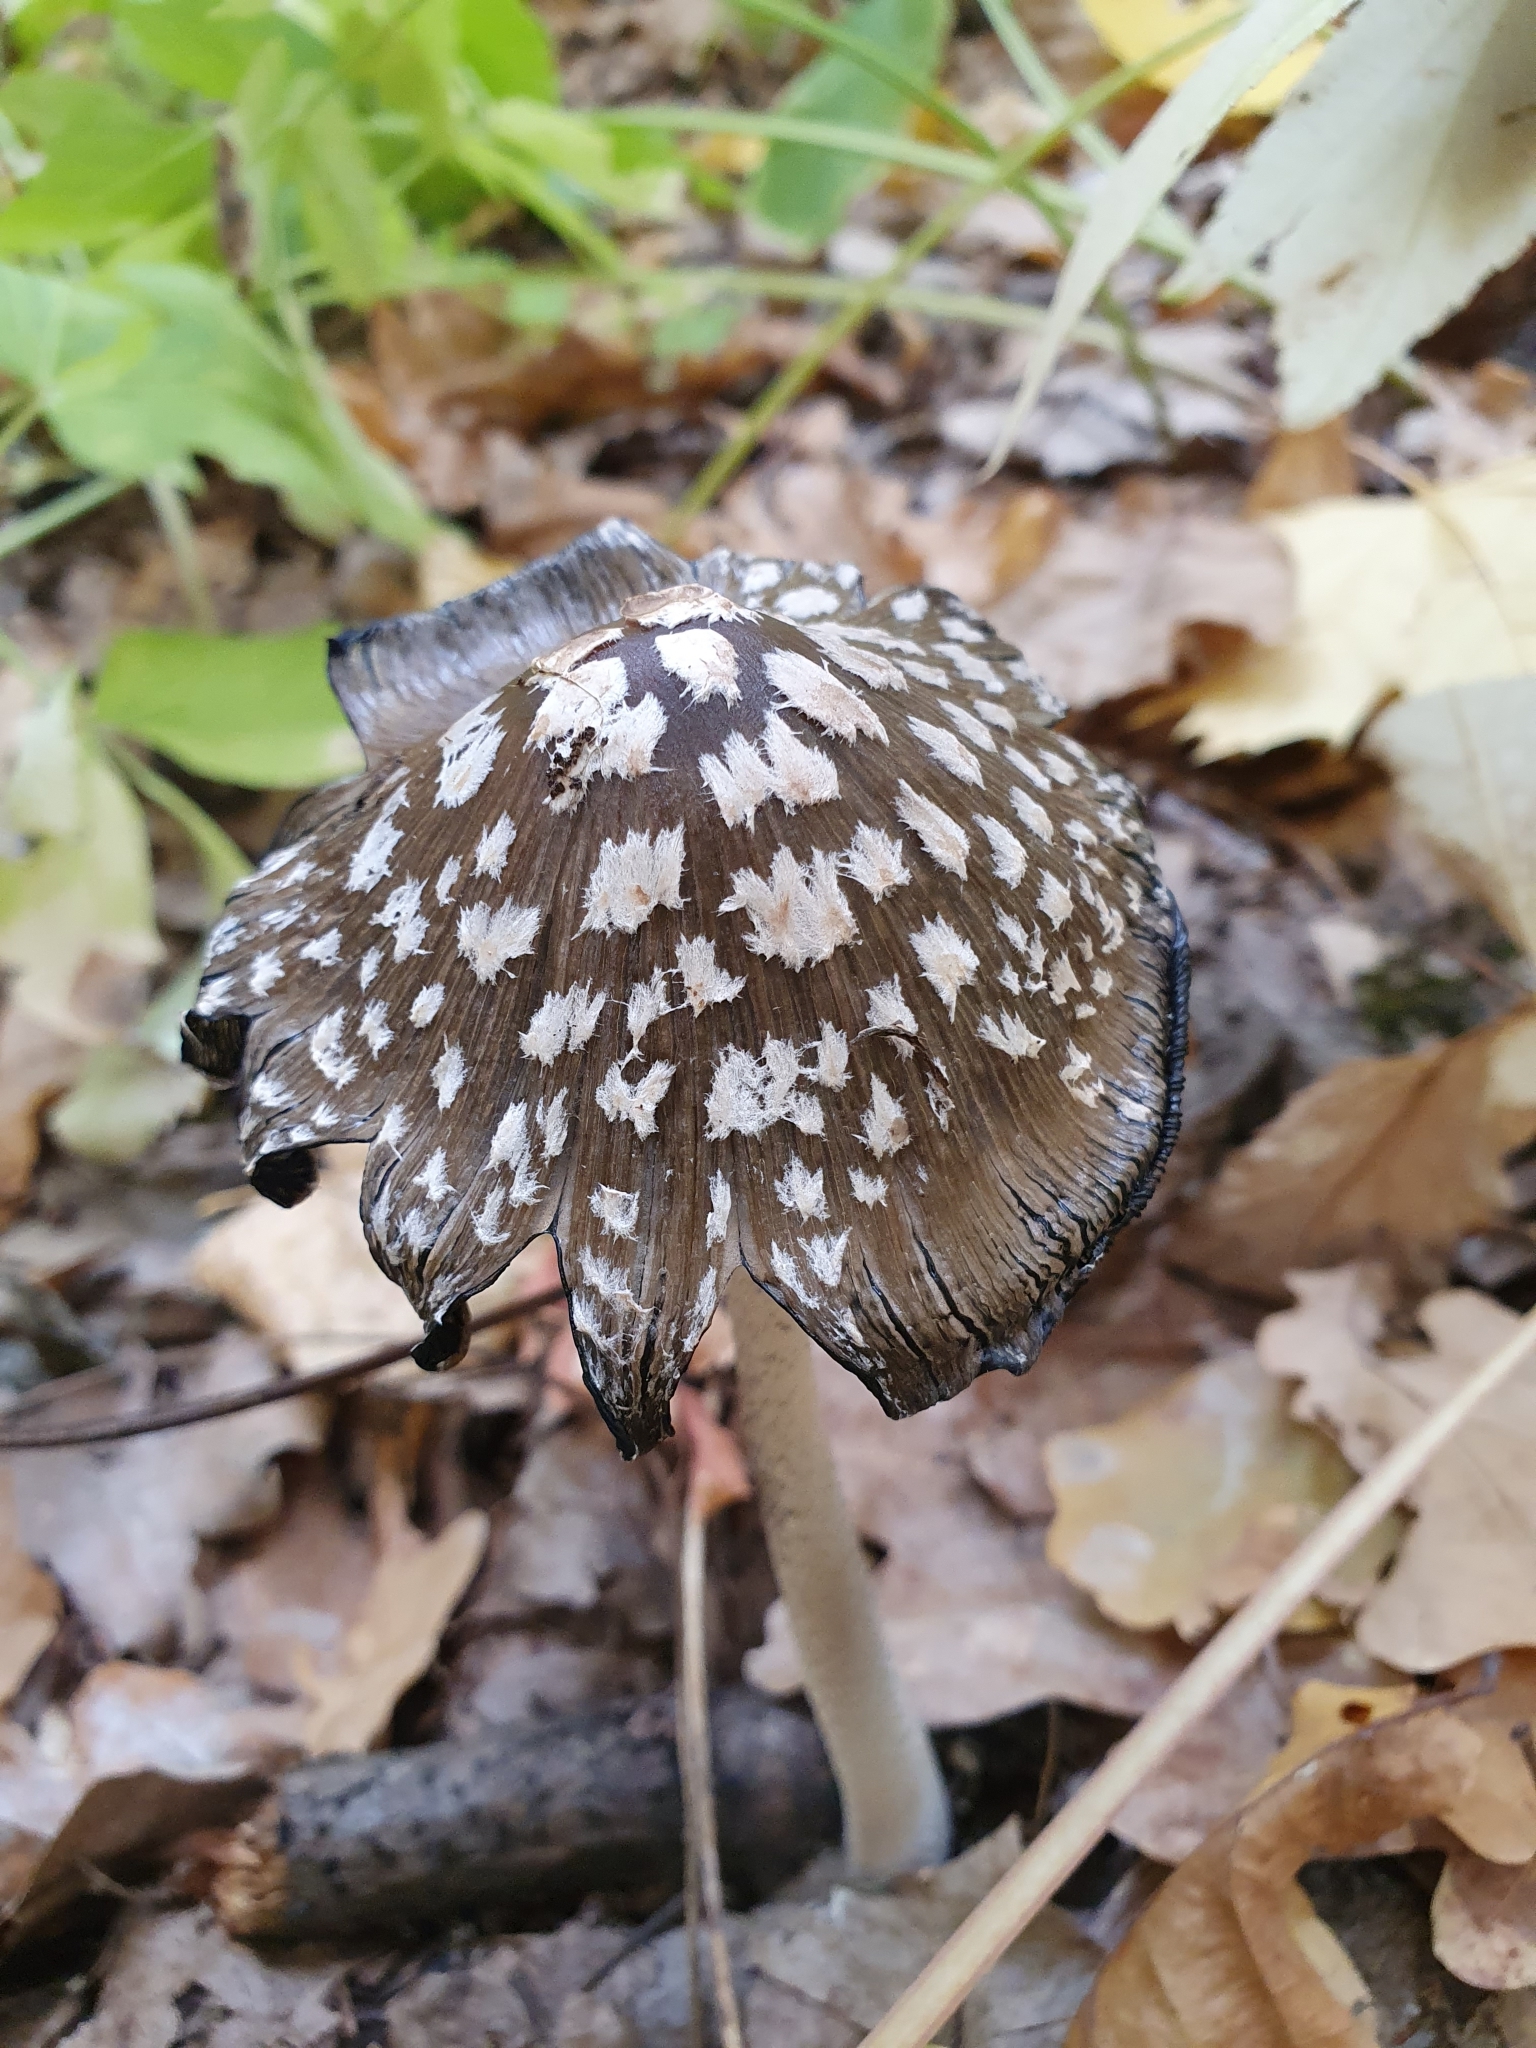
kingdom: Fungi
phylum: Basidiomycota
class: Agaricomycetes
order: Agaricales
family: Psathyrellaceae
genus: Coprinopsis
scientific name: Coprinopsis picacea
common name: Magpie inkcap
